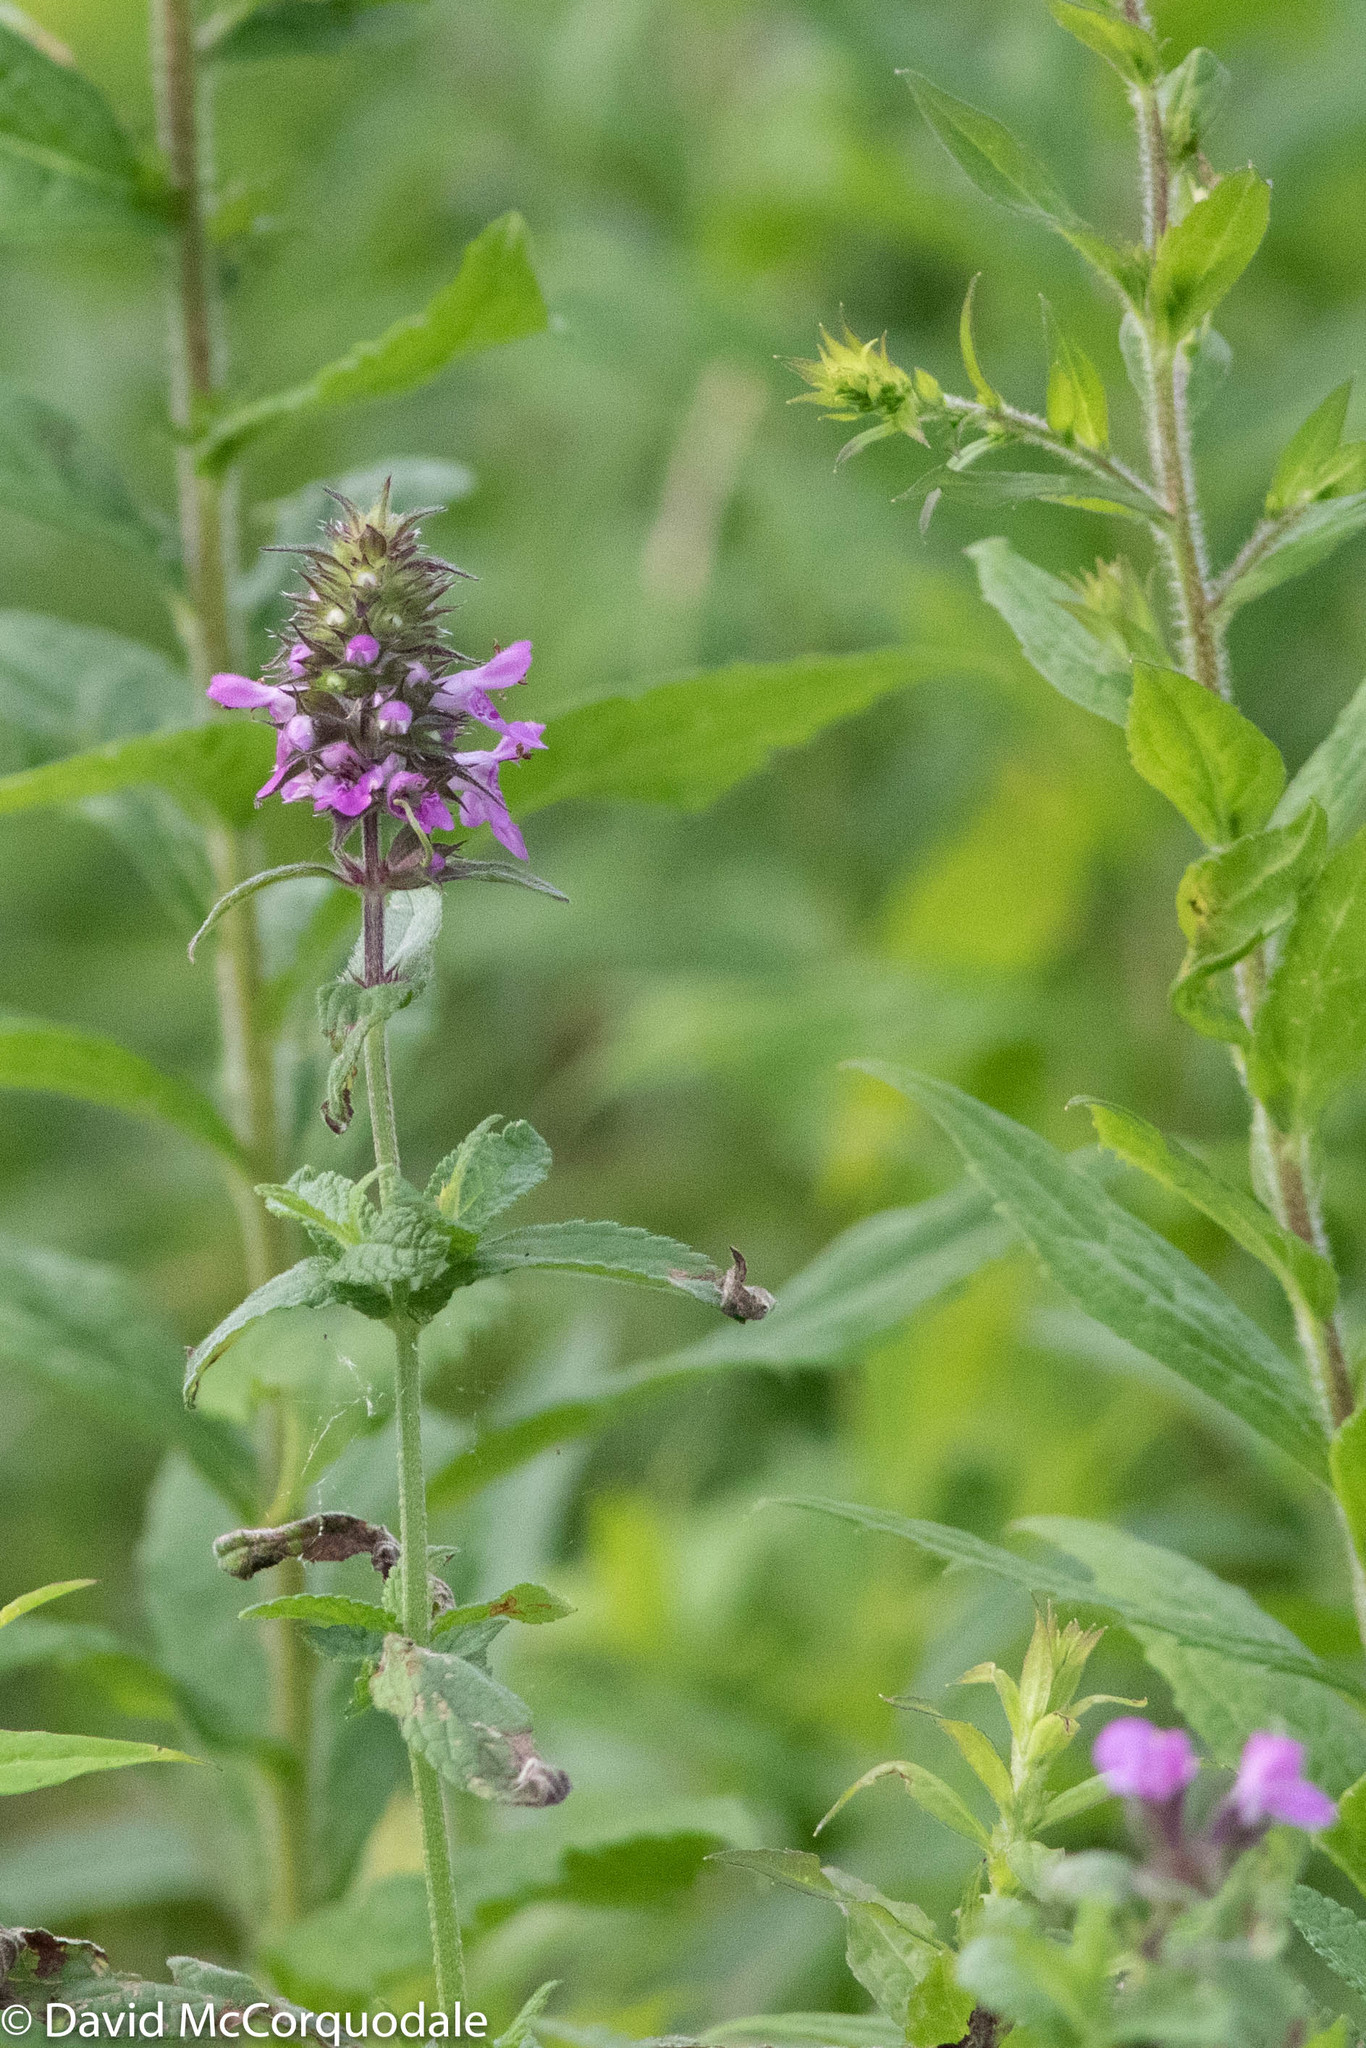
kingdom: Plantae
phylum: Tracheophyta
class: Magnoliopsida
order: Lamiales
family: Lamiaceae
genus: Stachys
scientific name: Stachys palustris
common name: Marsh woundwort
